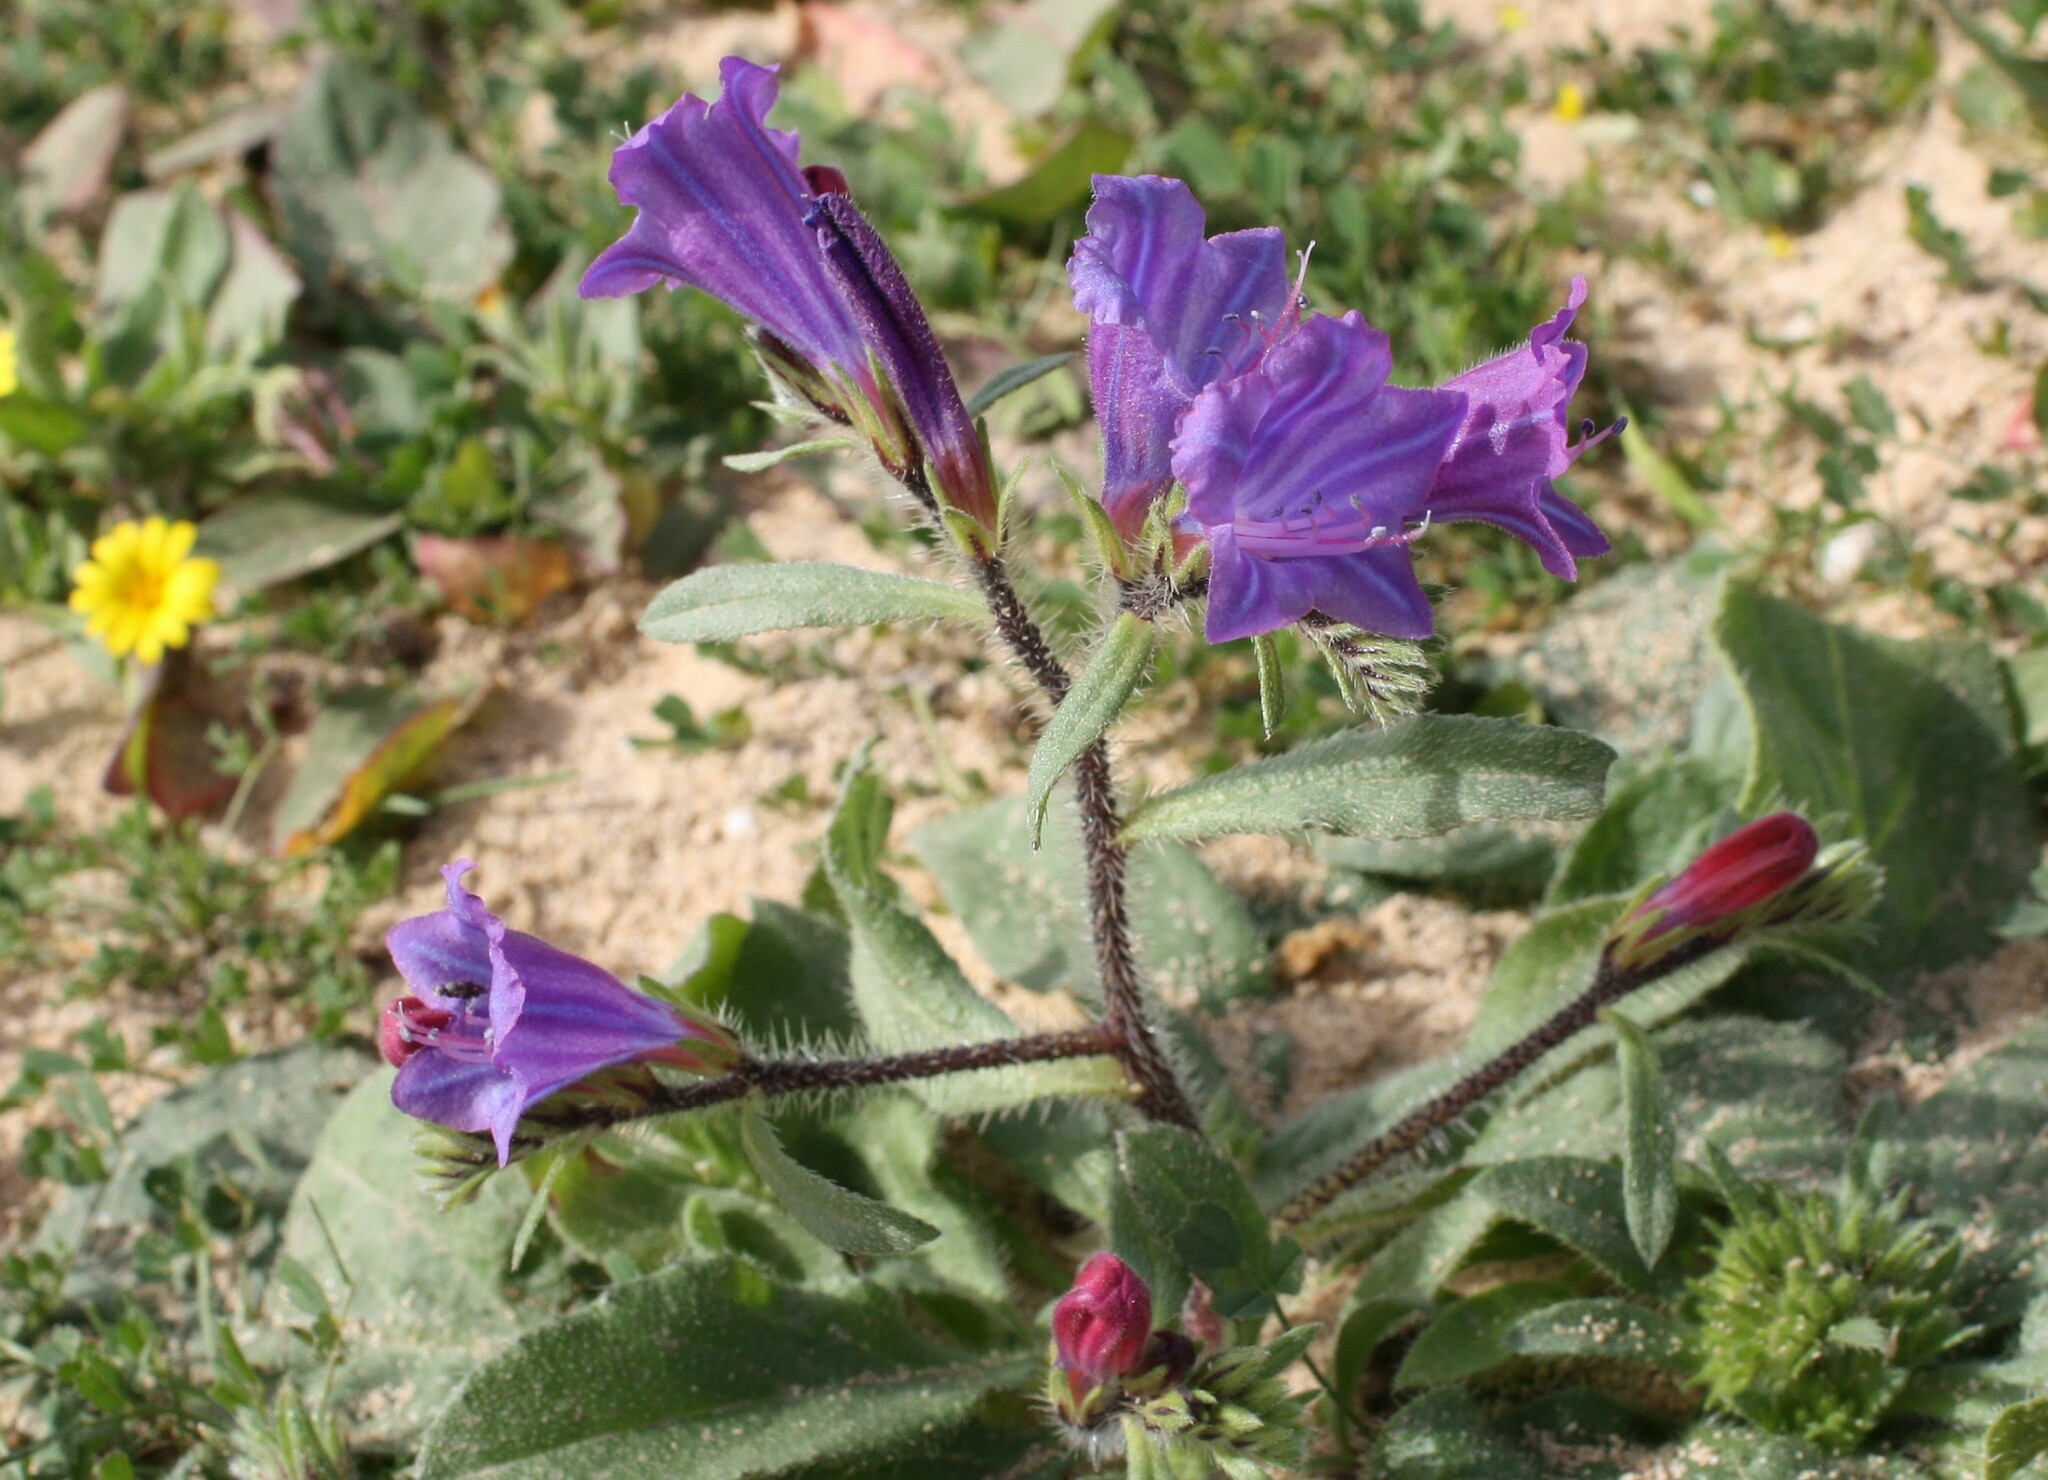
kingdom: Plantae
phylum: Tracheophyta
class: Magnoliopsida
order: Boraginales
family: Boraginaceae
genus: Echium
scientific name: Echium bonnetii
